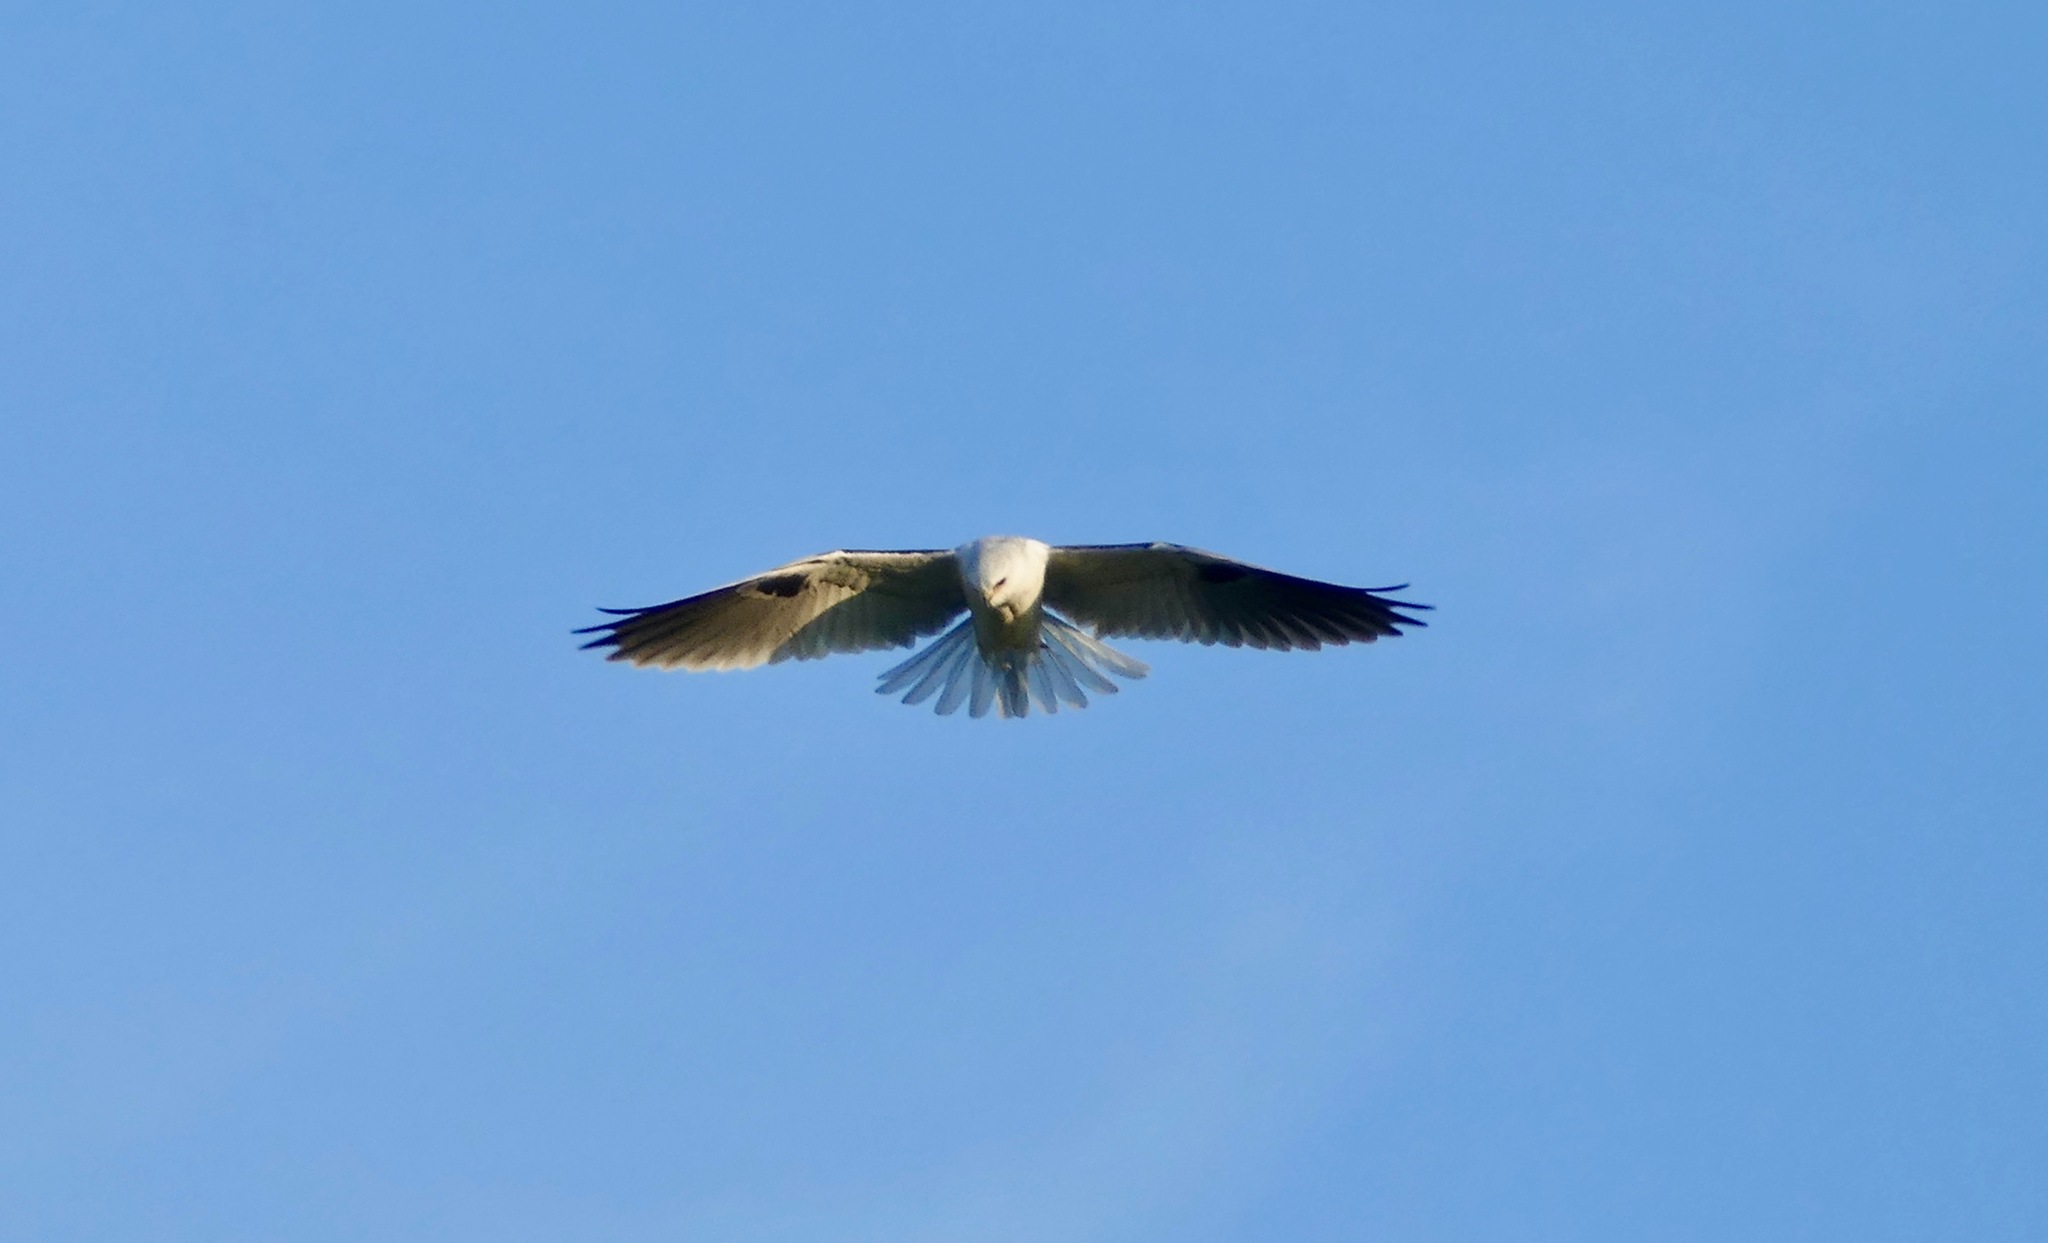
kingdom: Animalia
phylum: Chordata
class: Aves
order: Accipitriformes
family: Accipitridae
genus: Elanus
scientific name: Elanus leucurus
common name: White-tailed kite
